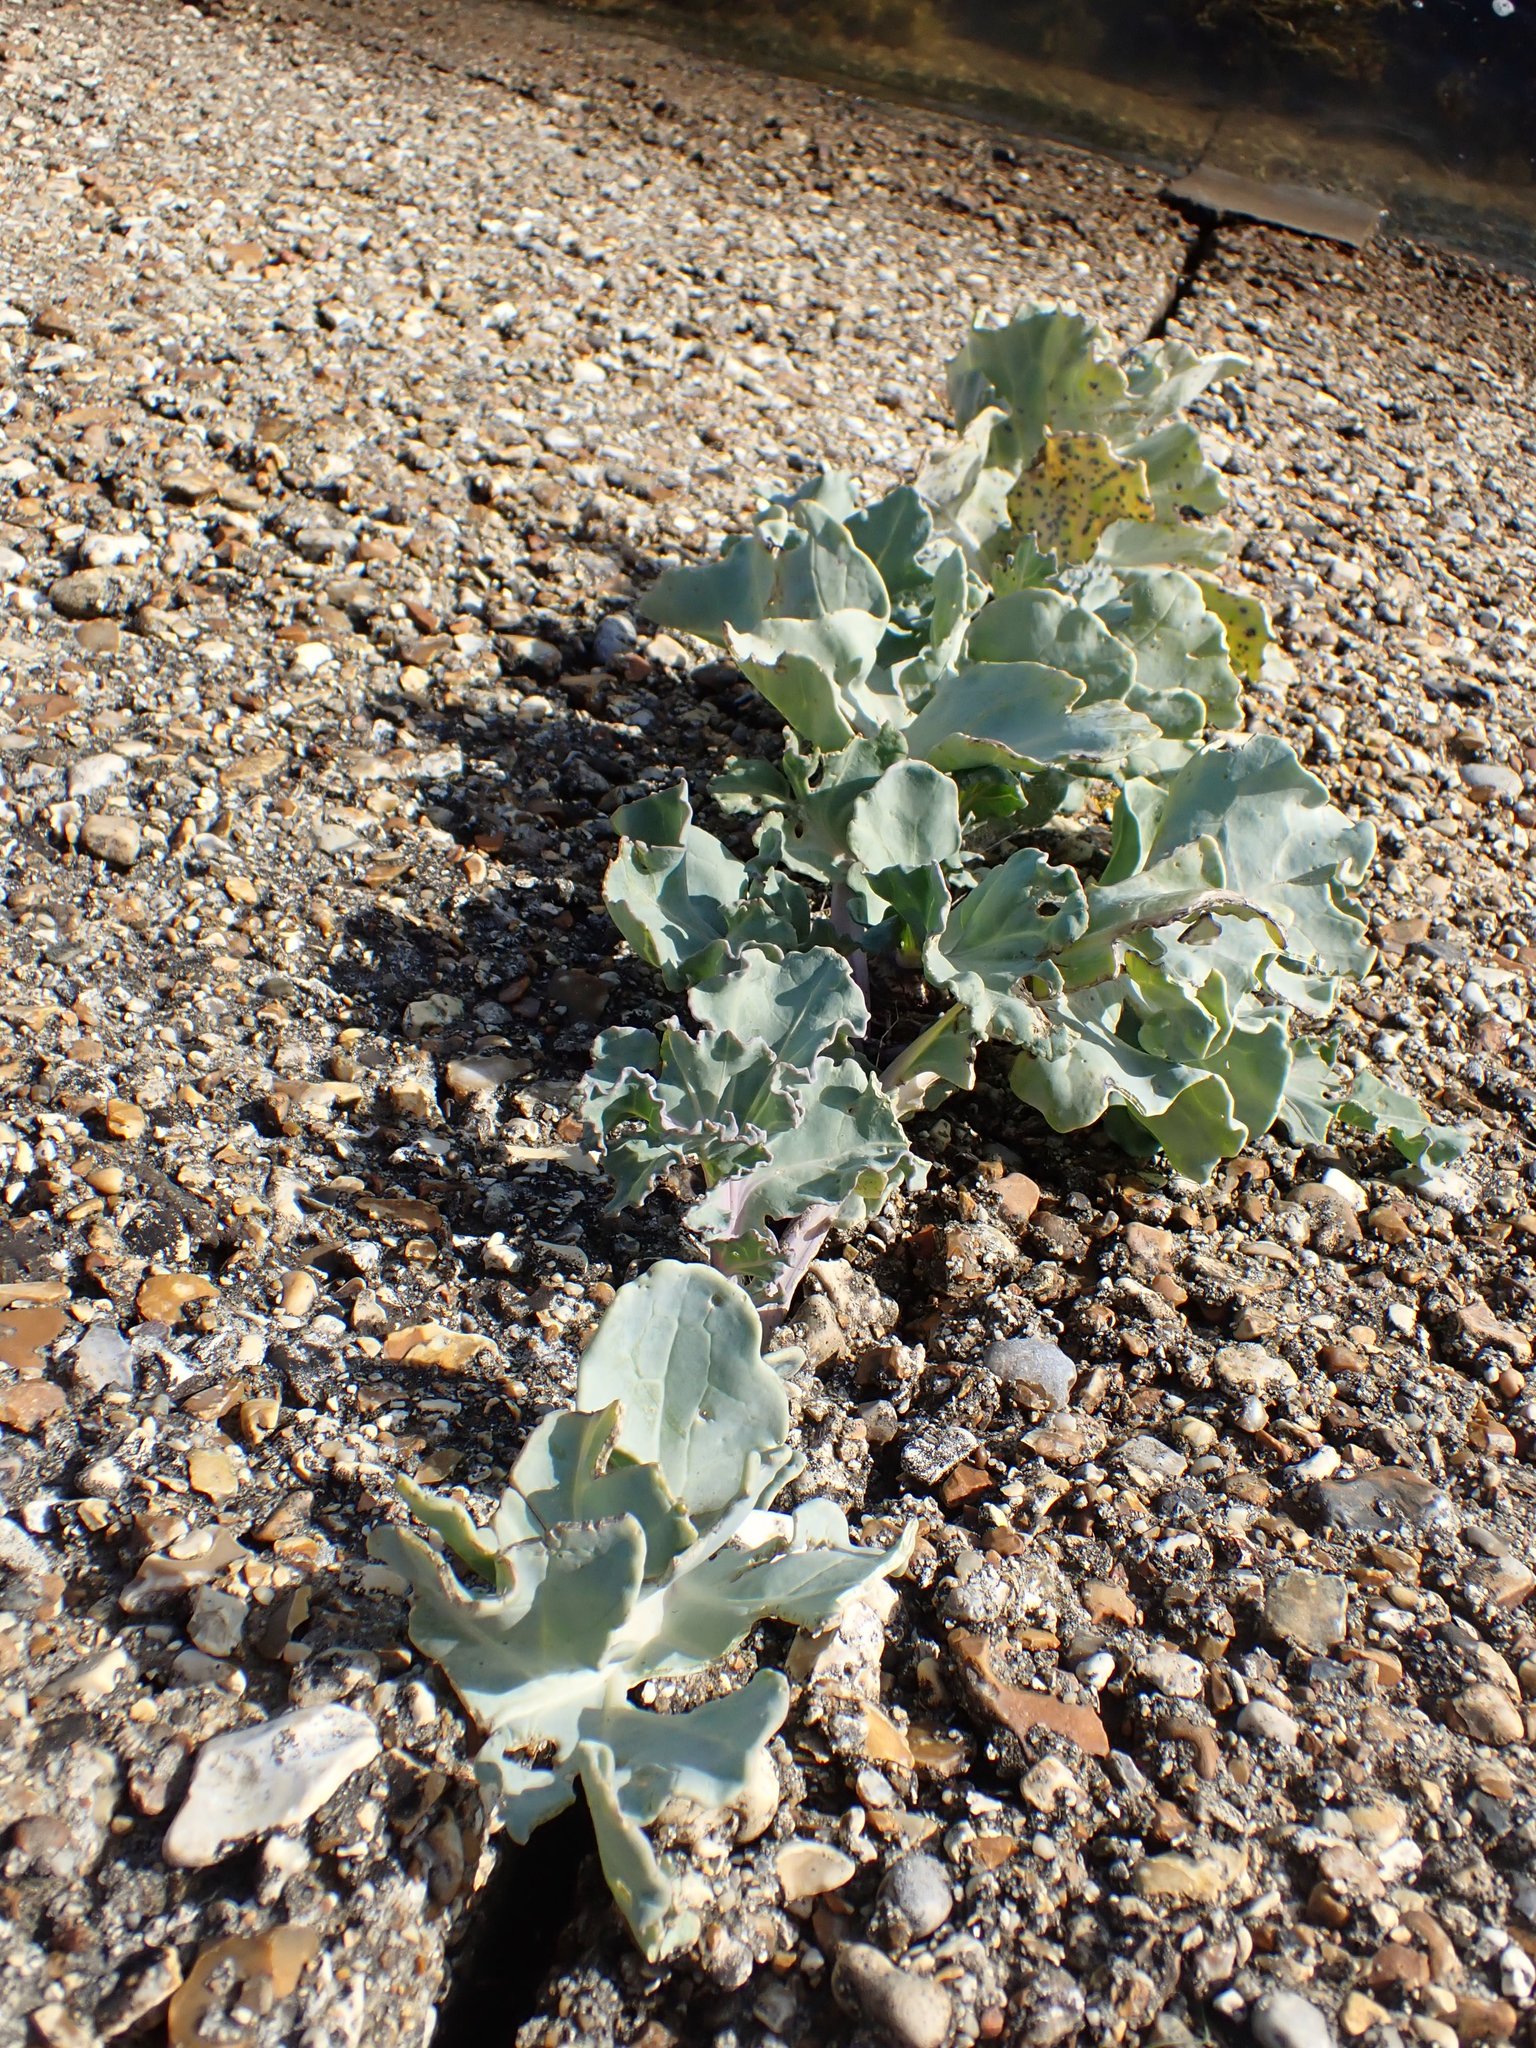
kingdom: Plantae
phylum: Tracheophyta
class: Magnoliopsida
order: Brassicales
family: Brassicaceae
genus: Crambe
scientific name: Crambe maritima
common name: Sea-kale
